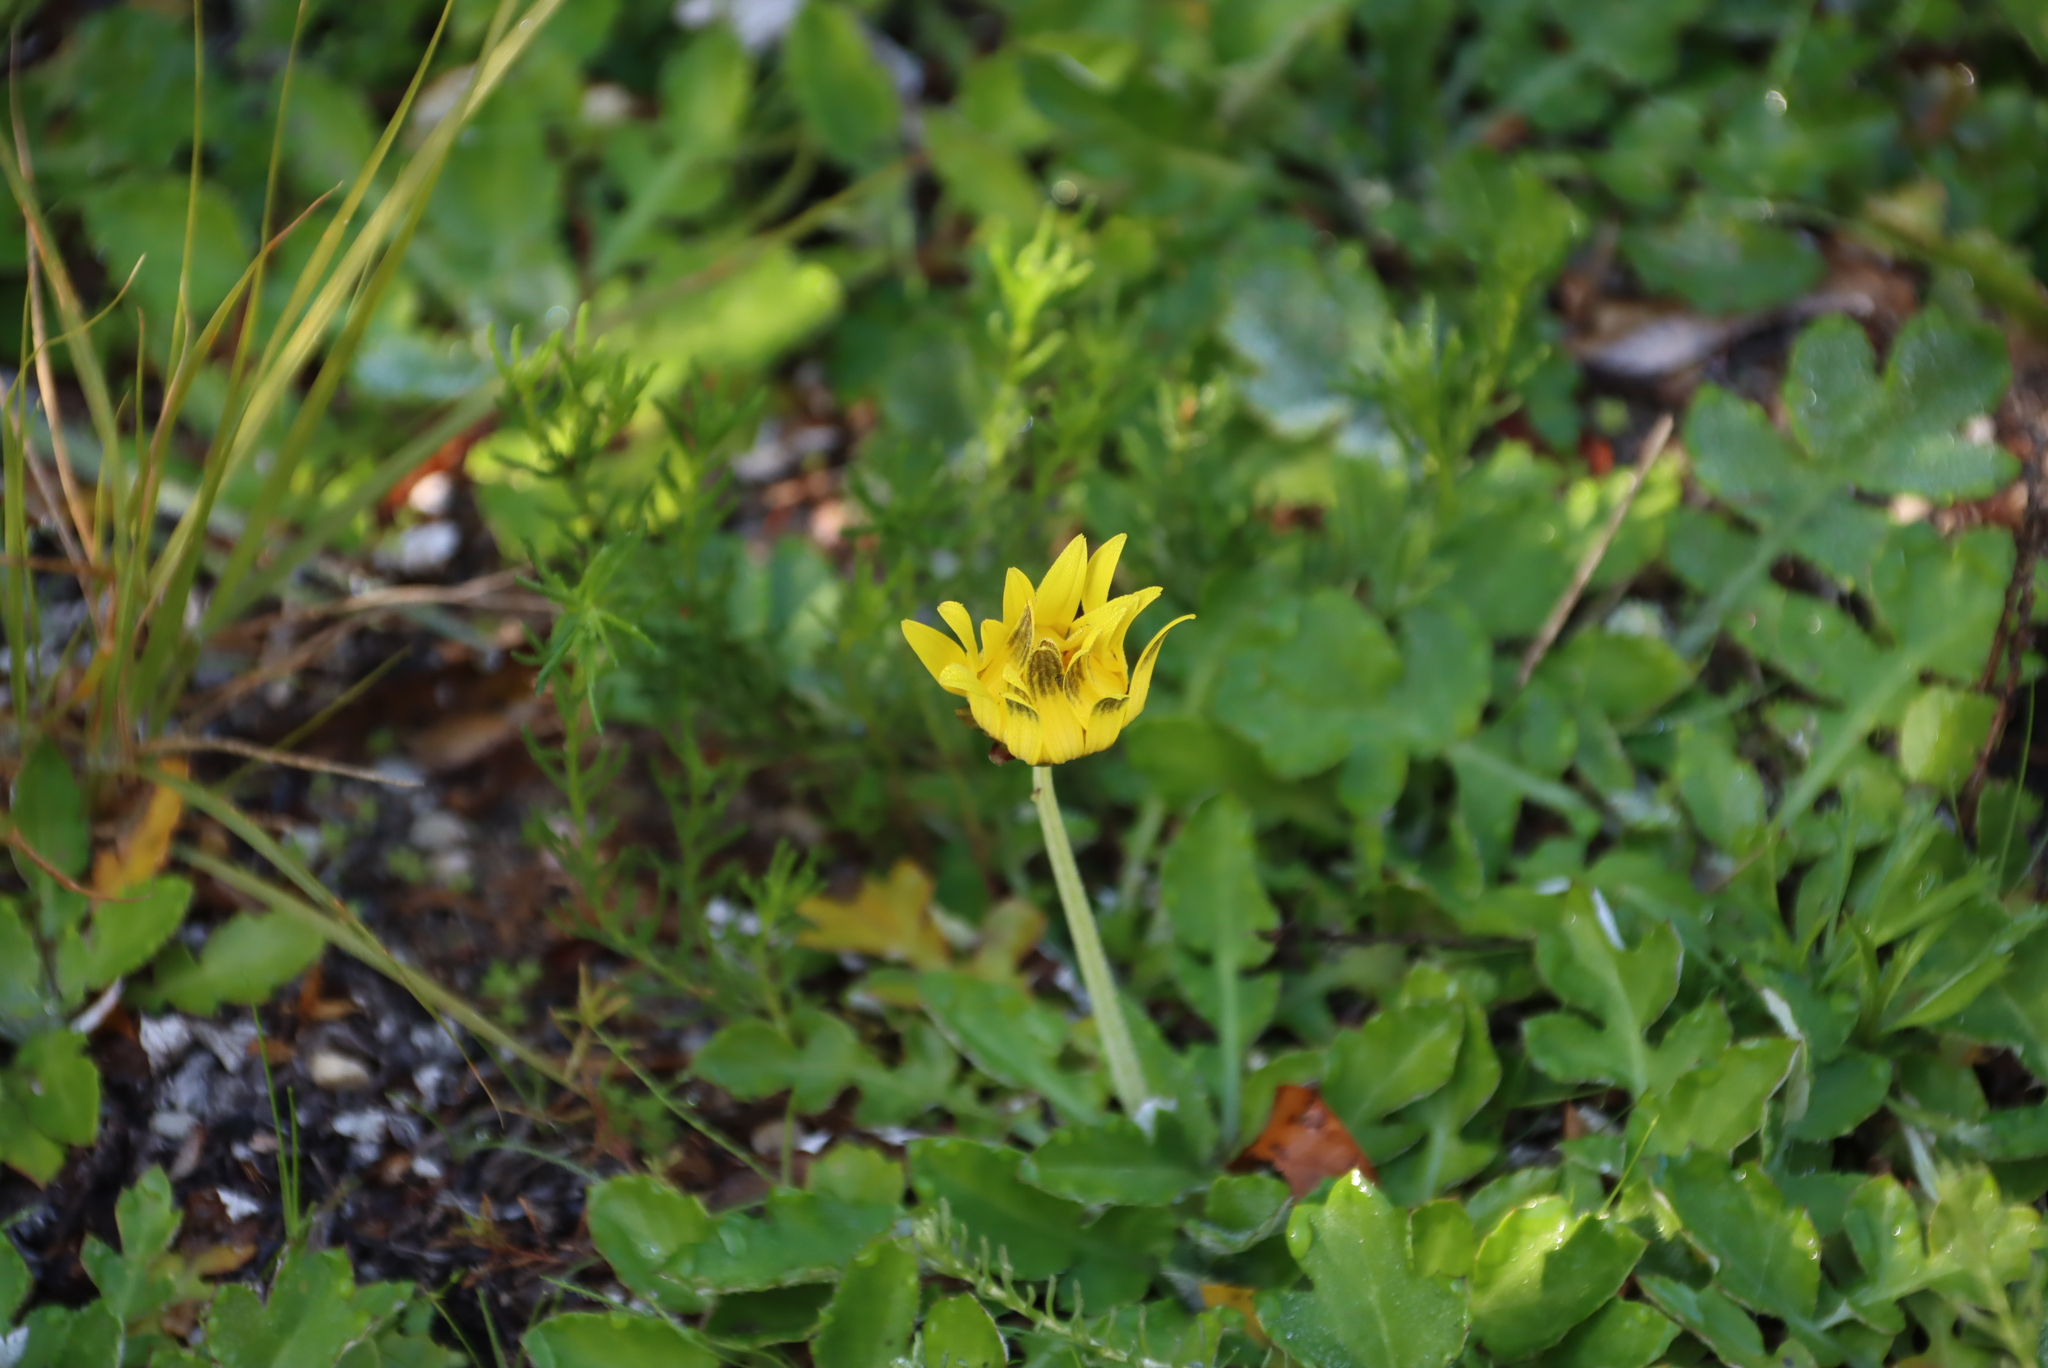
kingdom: Plantae
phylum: Tracheophyta
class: Magnoliopsida
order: Asterales
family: Asteraceae
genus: Arctotheca
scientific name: Arctotheca prostrata
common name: Capeweed
